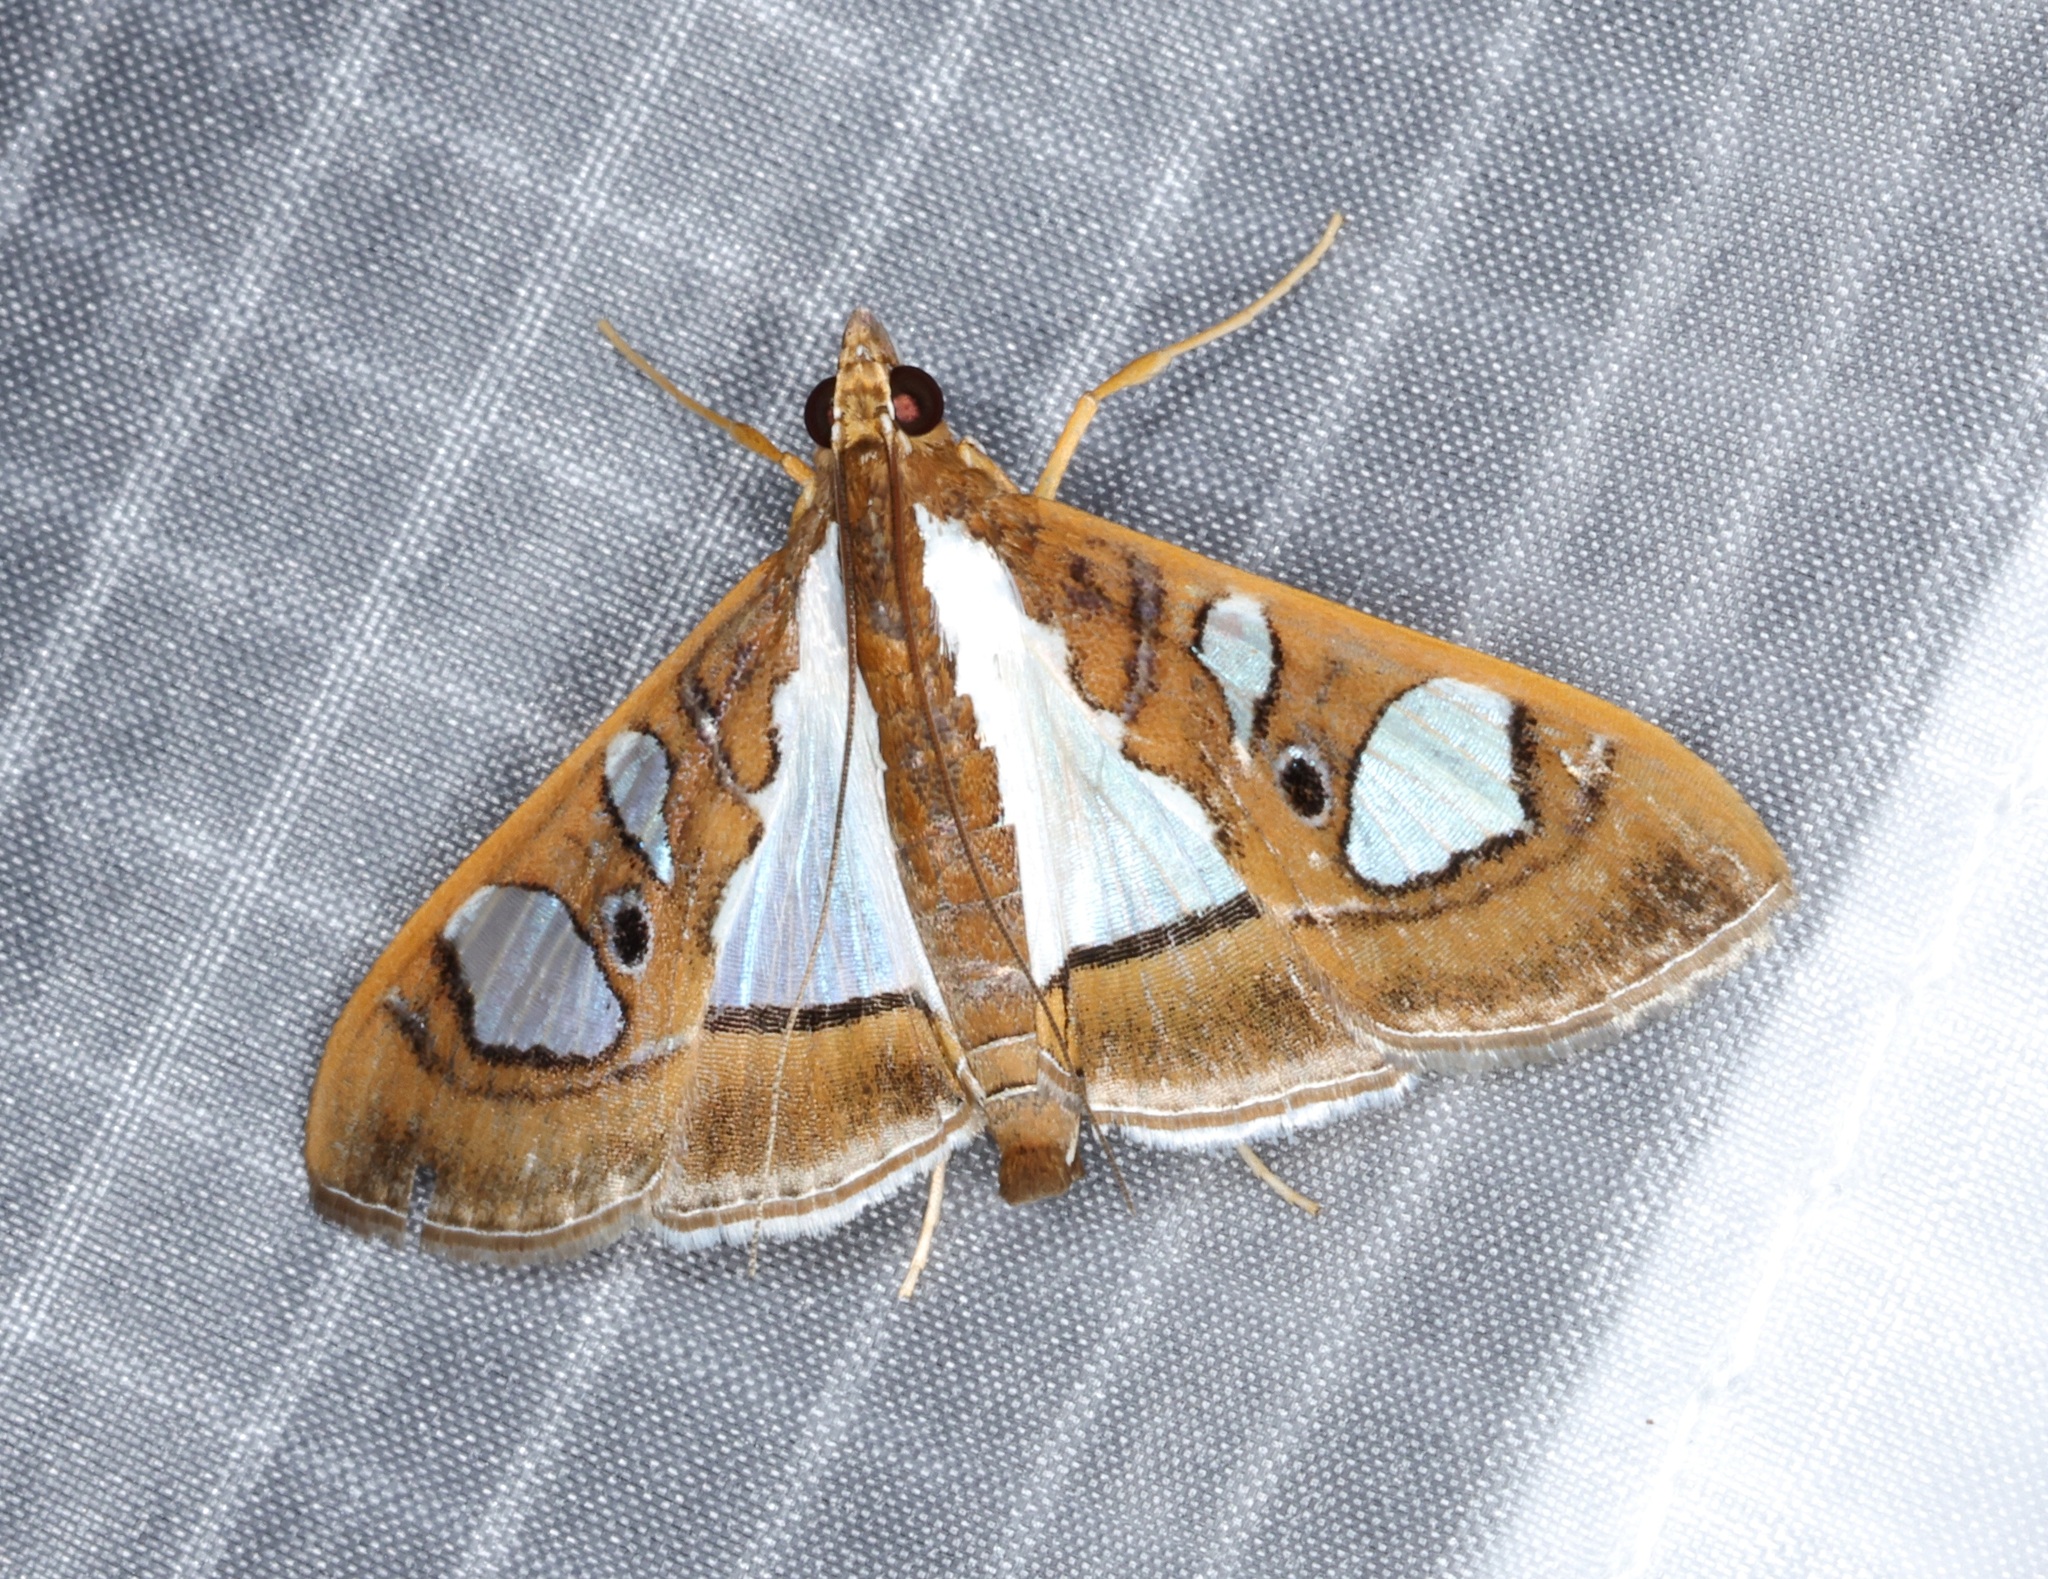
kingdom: Animalia
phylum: Arthropoda
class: Insecta
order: Lepidoptera
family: Crambidae
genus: Glyphodes
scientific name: Glyphodes bivitralis
